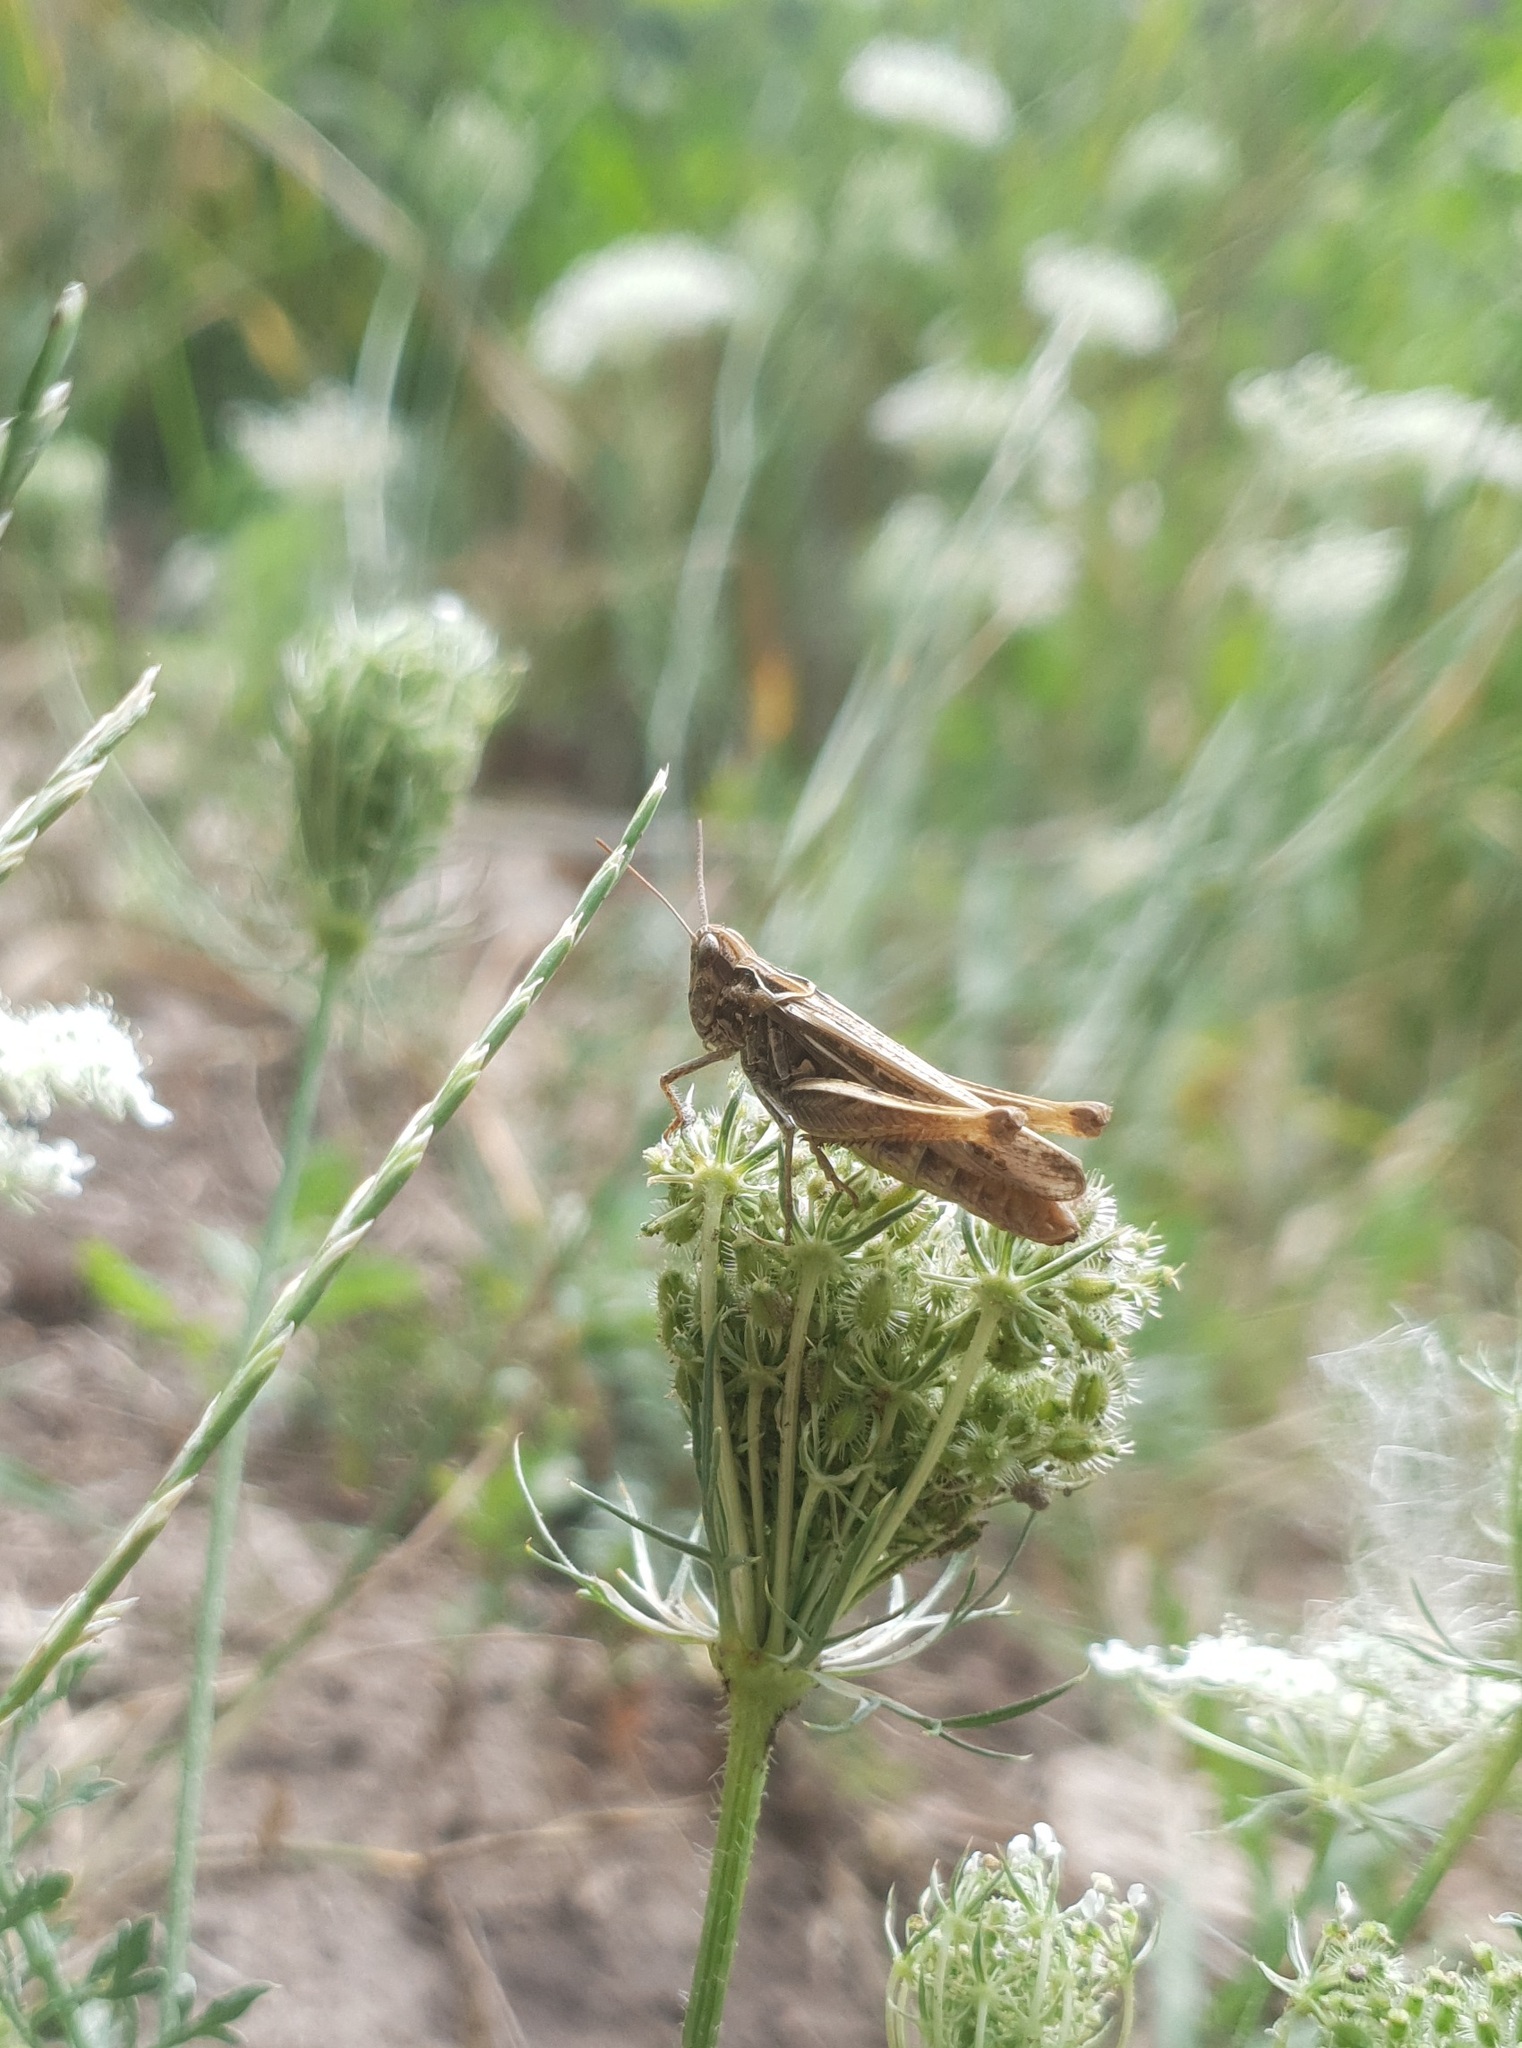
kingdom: Animalia
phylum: Arthropoda
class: Insecta
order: Orthoptera
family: Acrididae
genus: Glyptobothrus
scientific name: Glyptobothrus
